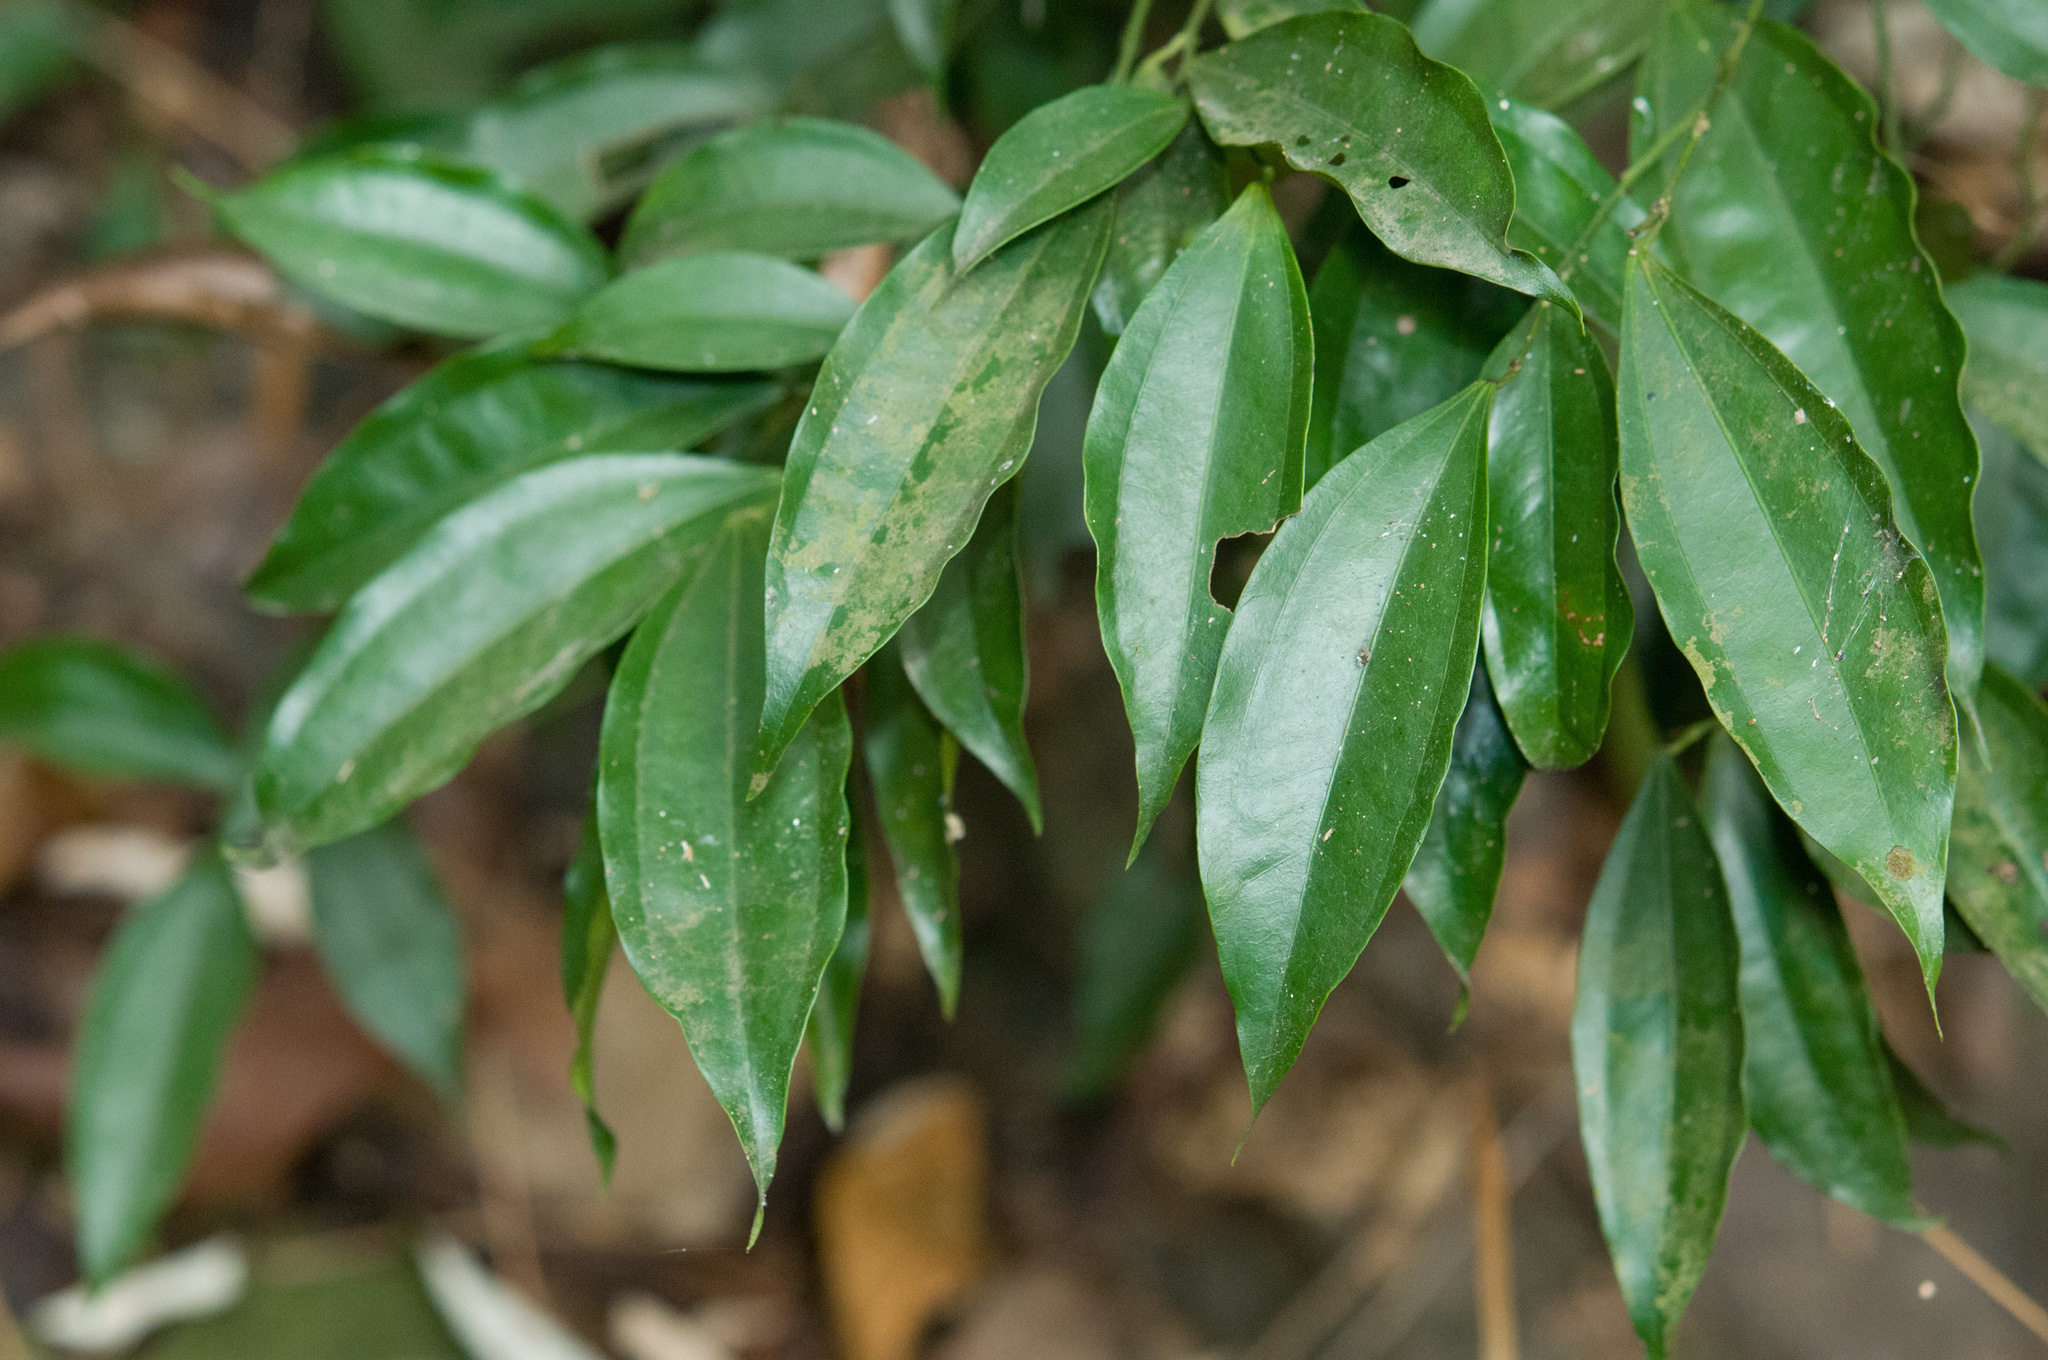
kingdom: Plantae
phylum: Tracheophyta
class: Magnoliopsida
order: Ranunculales
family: Menispermaceae
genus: Cocculus
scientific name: Cocculus laurifolius
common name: Laurel-leaf snailseed
